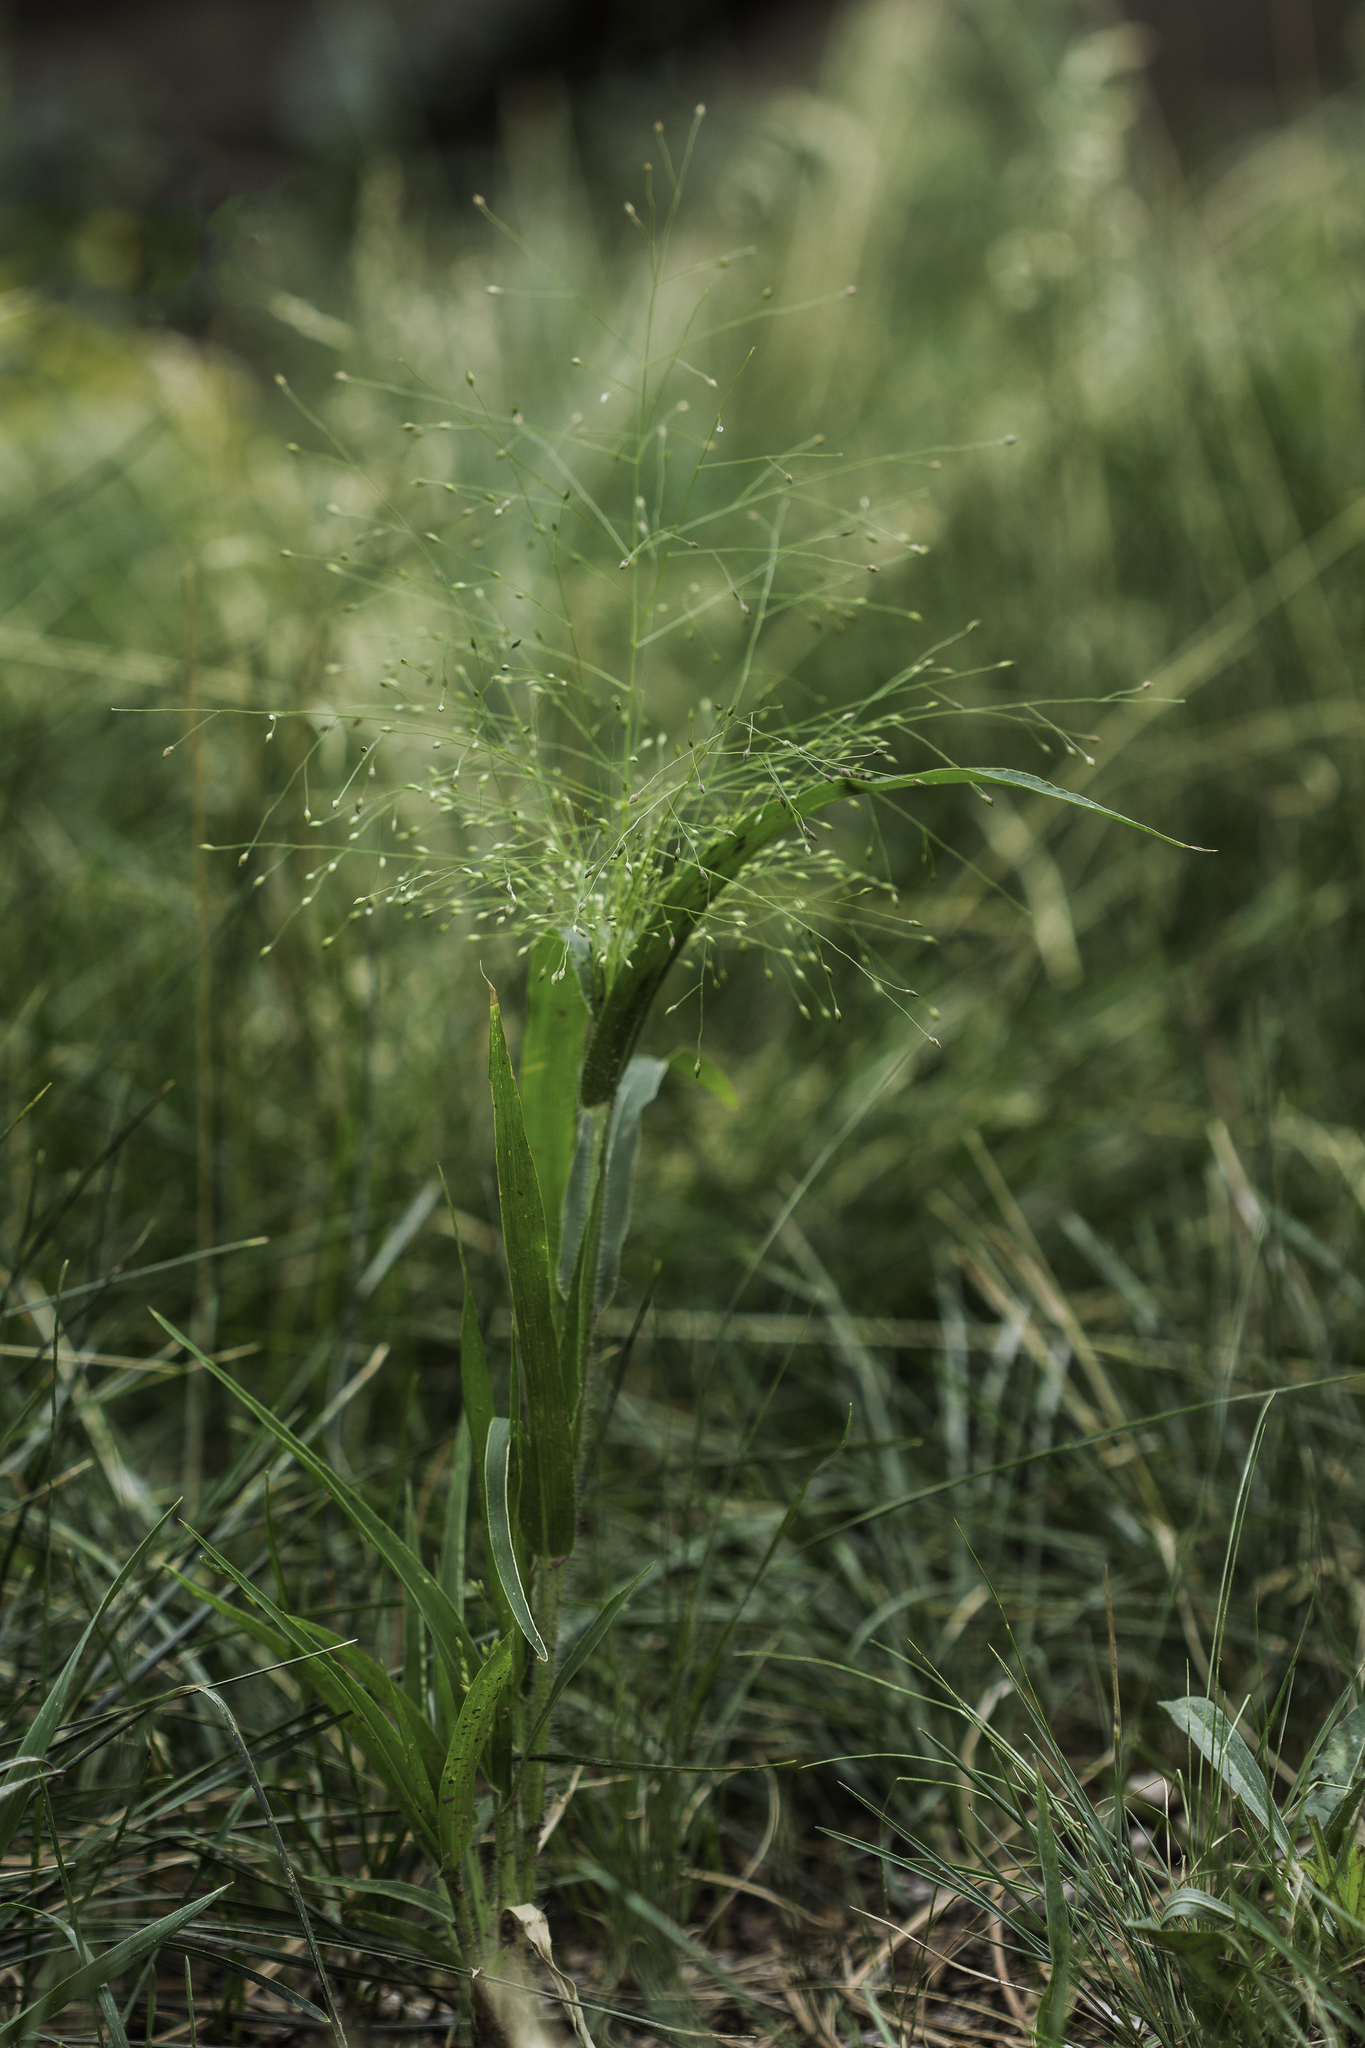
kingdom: Plantae
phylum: Tracheophyta
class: Liliopsida
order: Poales
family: Poaceae
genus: Panicum
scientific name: Panicum capillare
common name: Witch-grass
